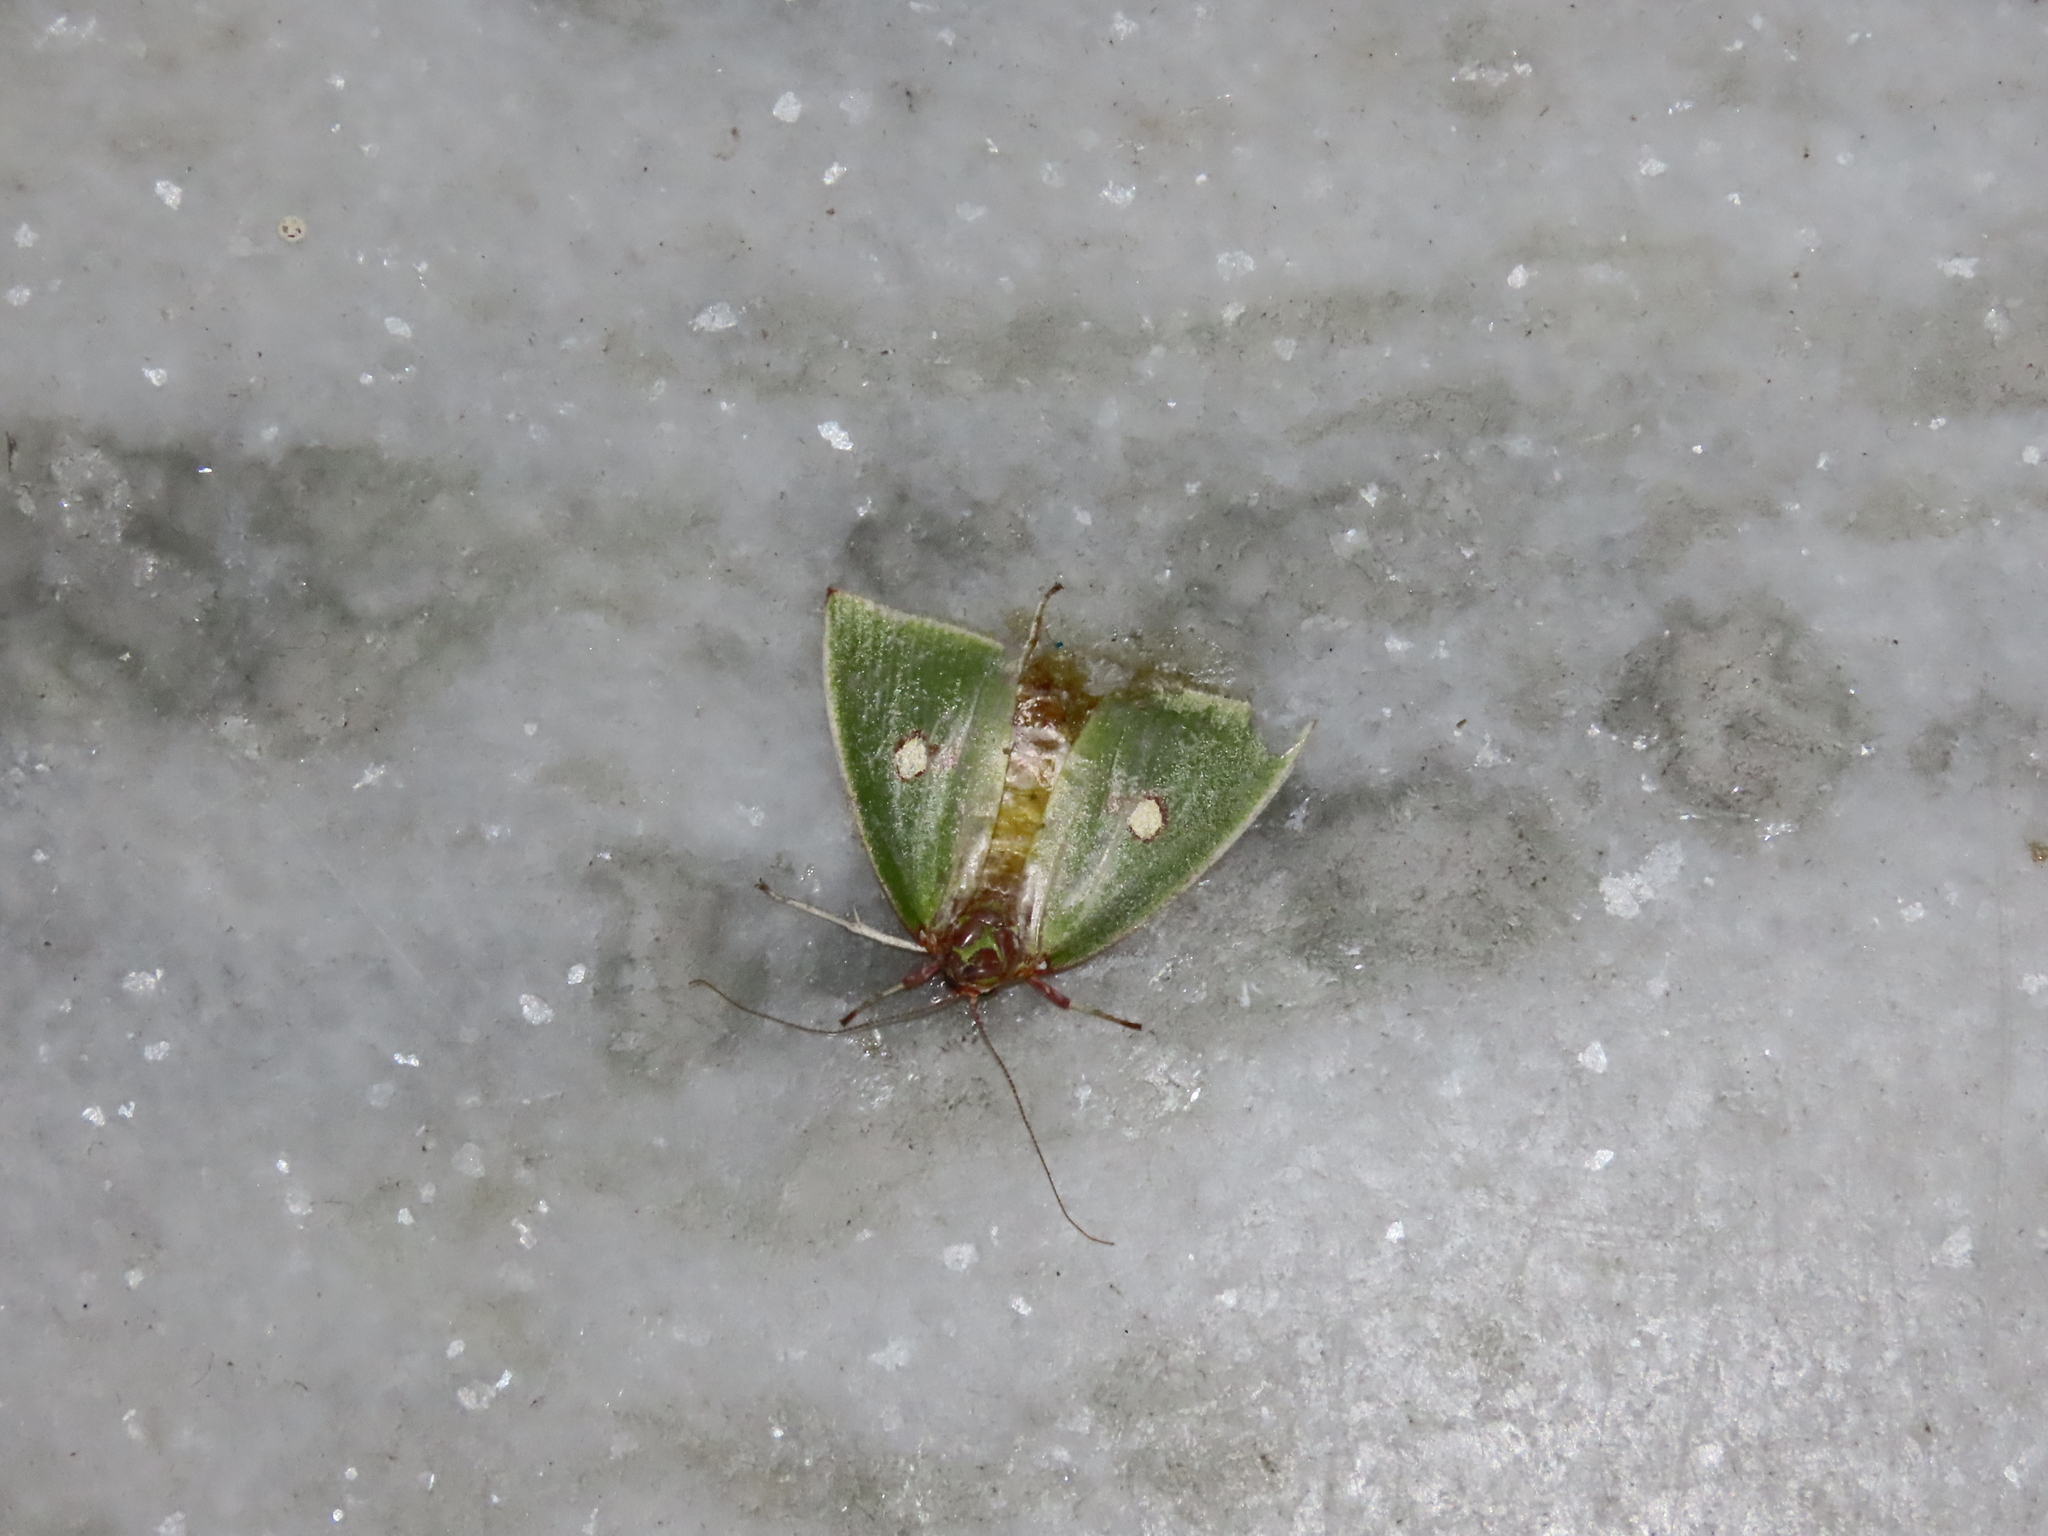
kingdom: Animalia
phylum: Arthropoda
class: Insecta
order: Lepidoptera
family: Nolidae
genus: Tyana
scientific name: Tyana pustulifera
